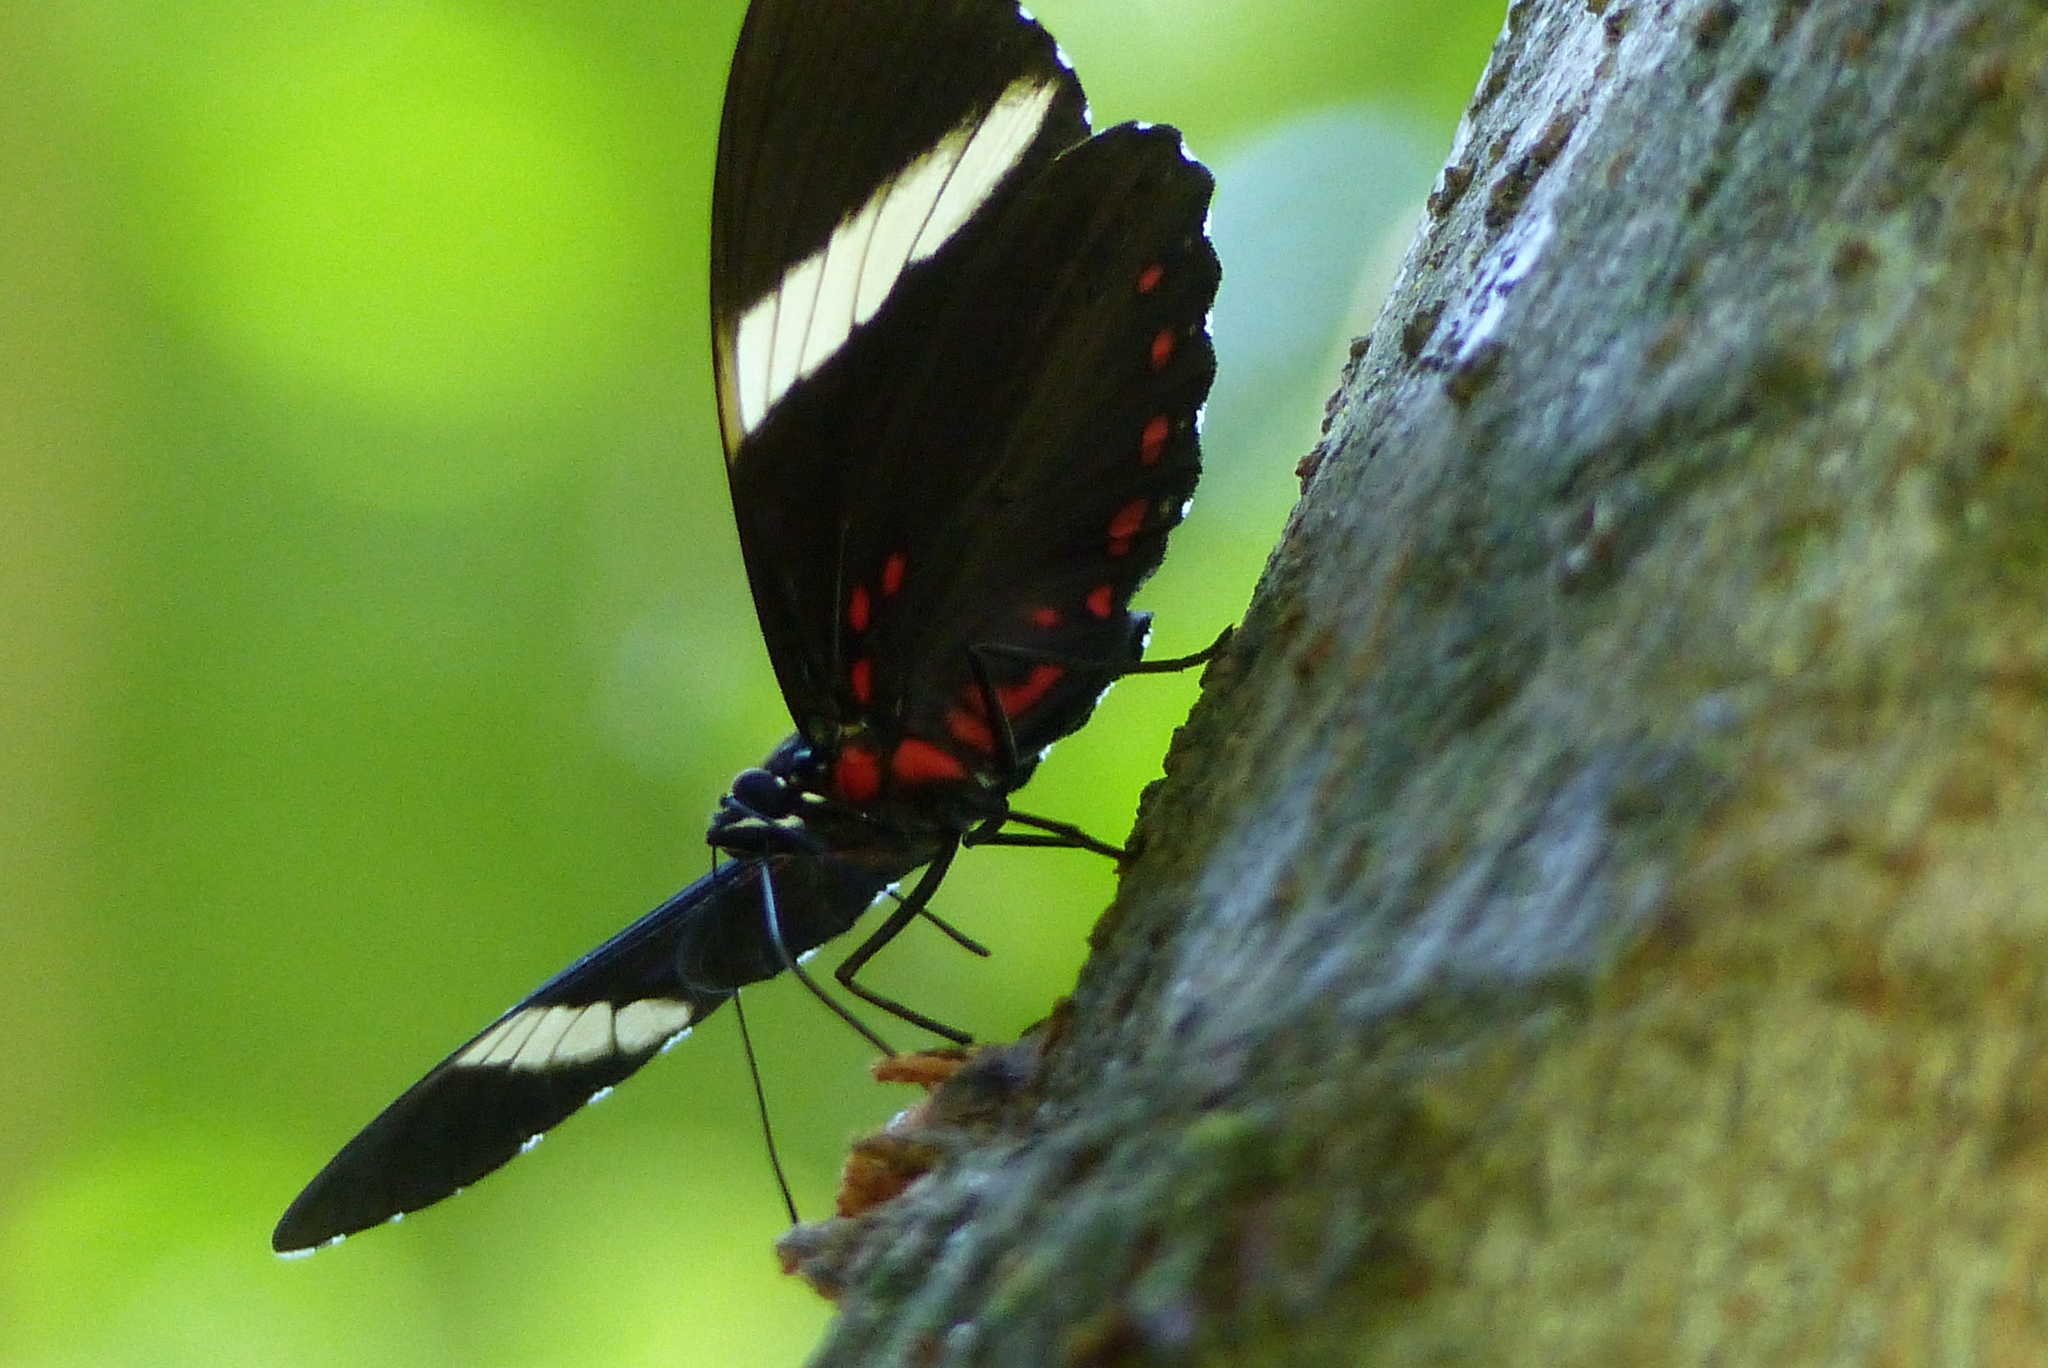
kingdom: Animalia
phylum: Arthropoda
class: Insecta
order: Lepidoptera
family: Nymphalidae
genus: Hamadryas
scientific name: Hamadryas laodamia
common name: Starry night cracker
